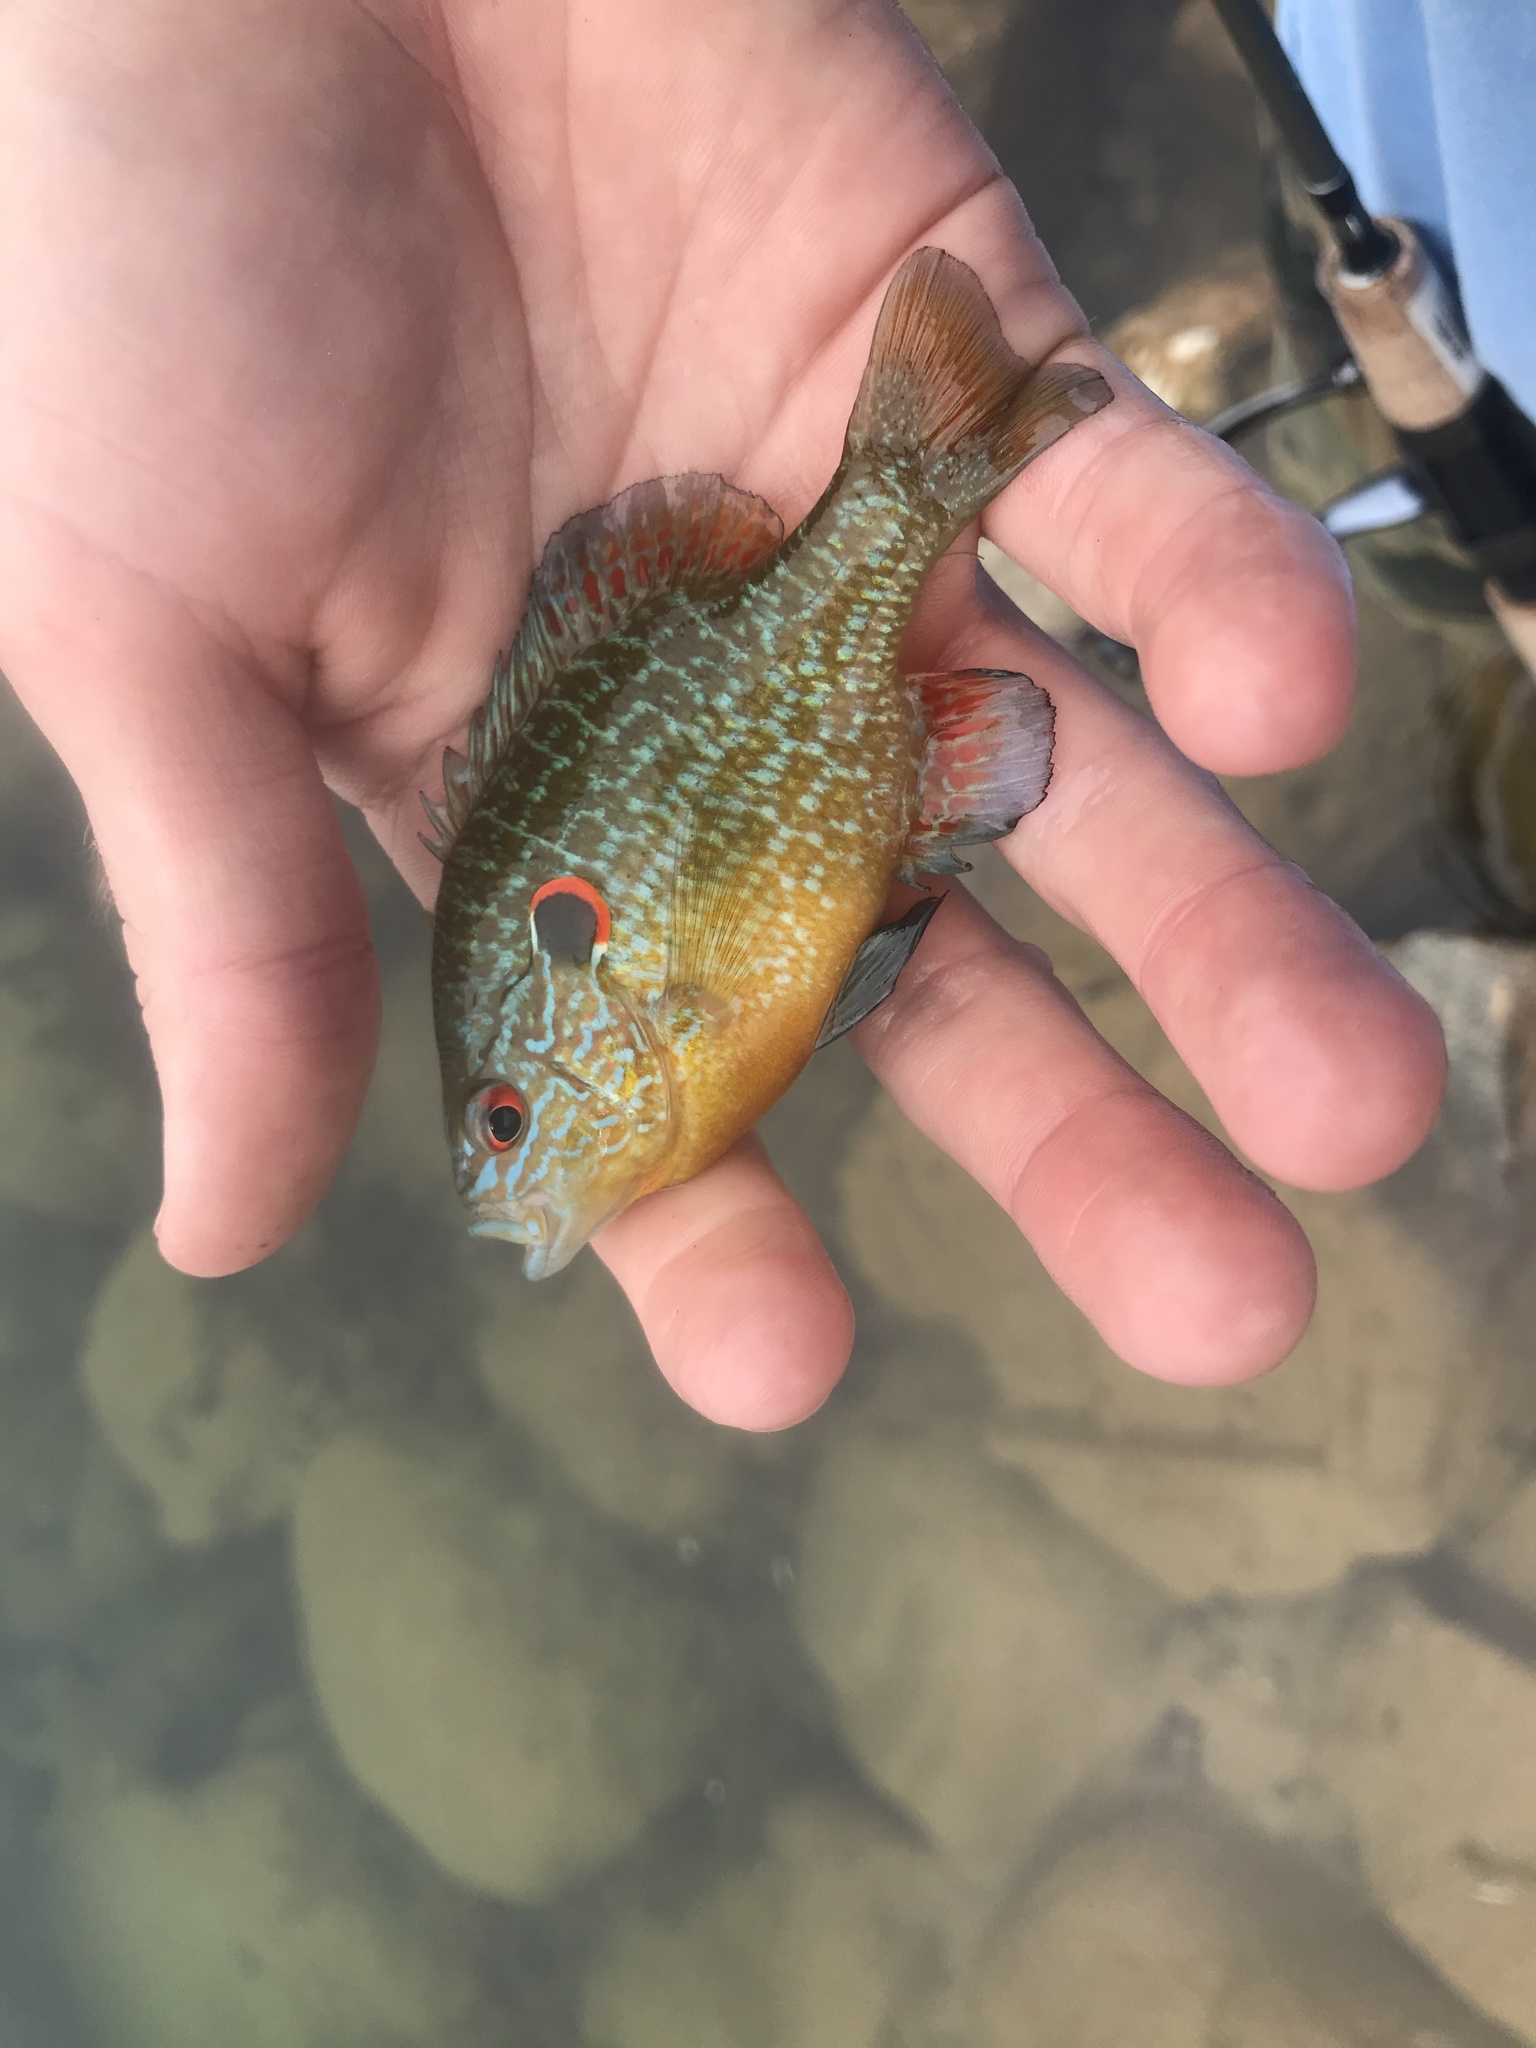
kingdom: Animalia
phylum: Chordata
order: Perciformes
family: Centrarchidae
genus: Lepomis
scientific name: Lepomis peltastes
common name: Northern sunfish
